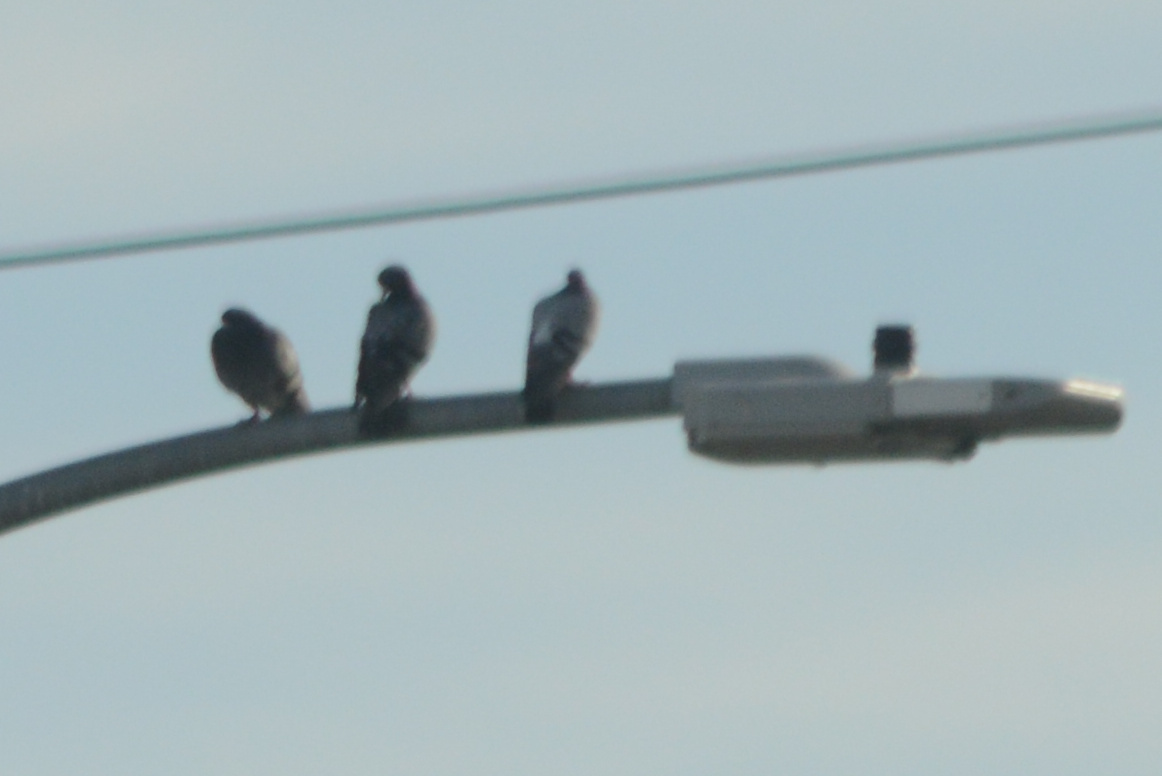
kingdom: Animalia
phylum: Chordata
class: Aves
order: Columbiformes
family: Columbidae
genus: Columba
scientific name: Columba livia
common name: Rock pigeon
